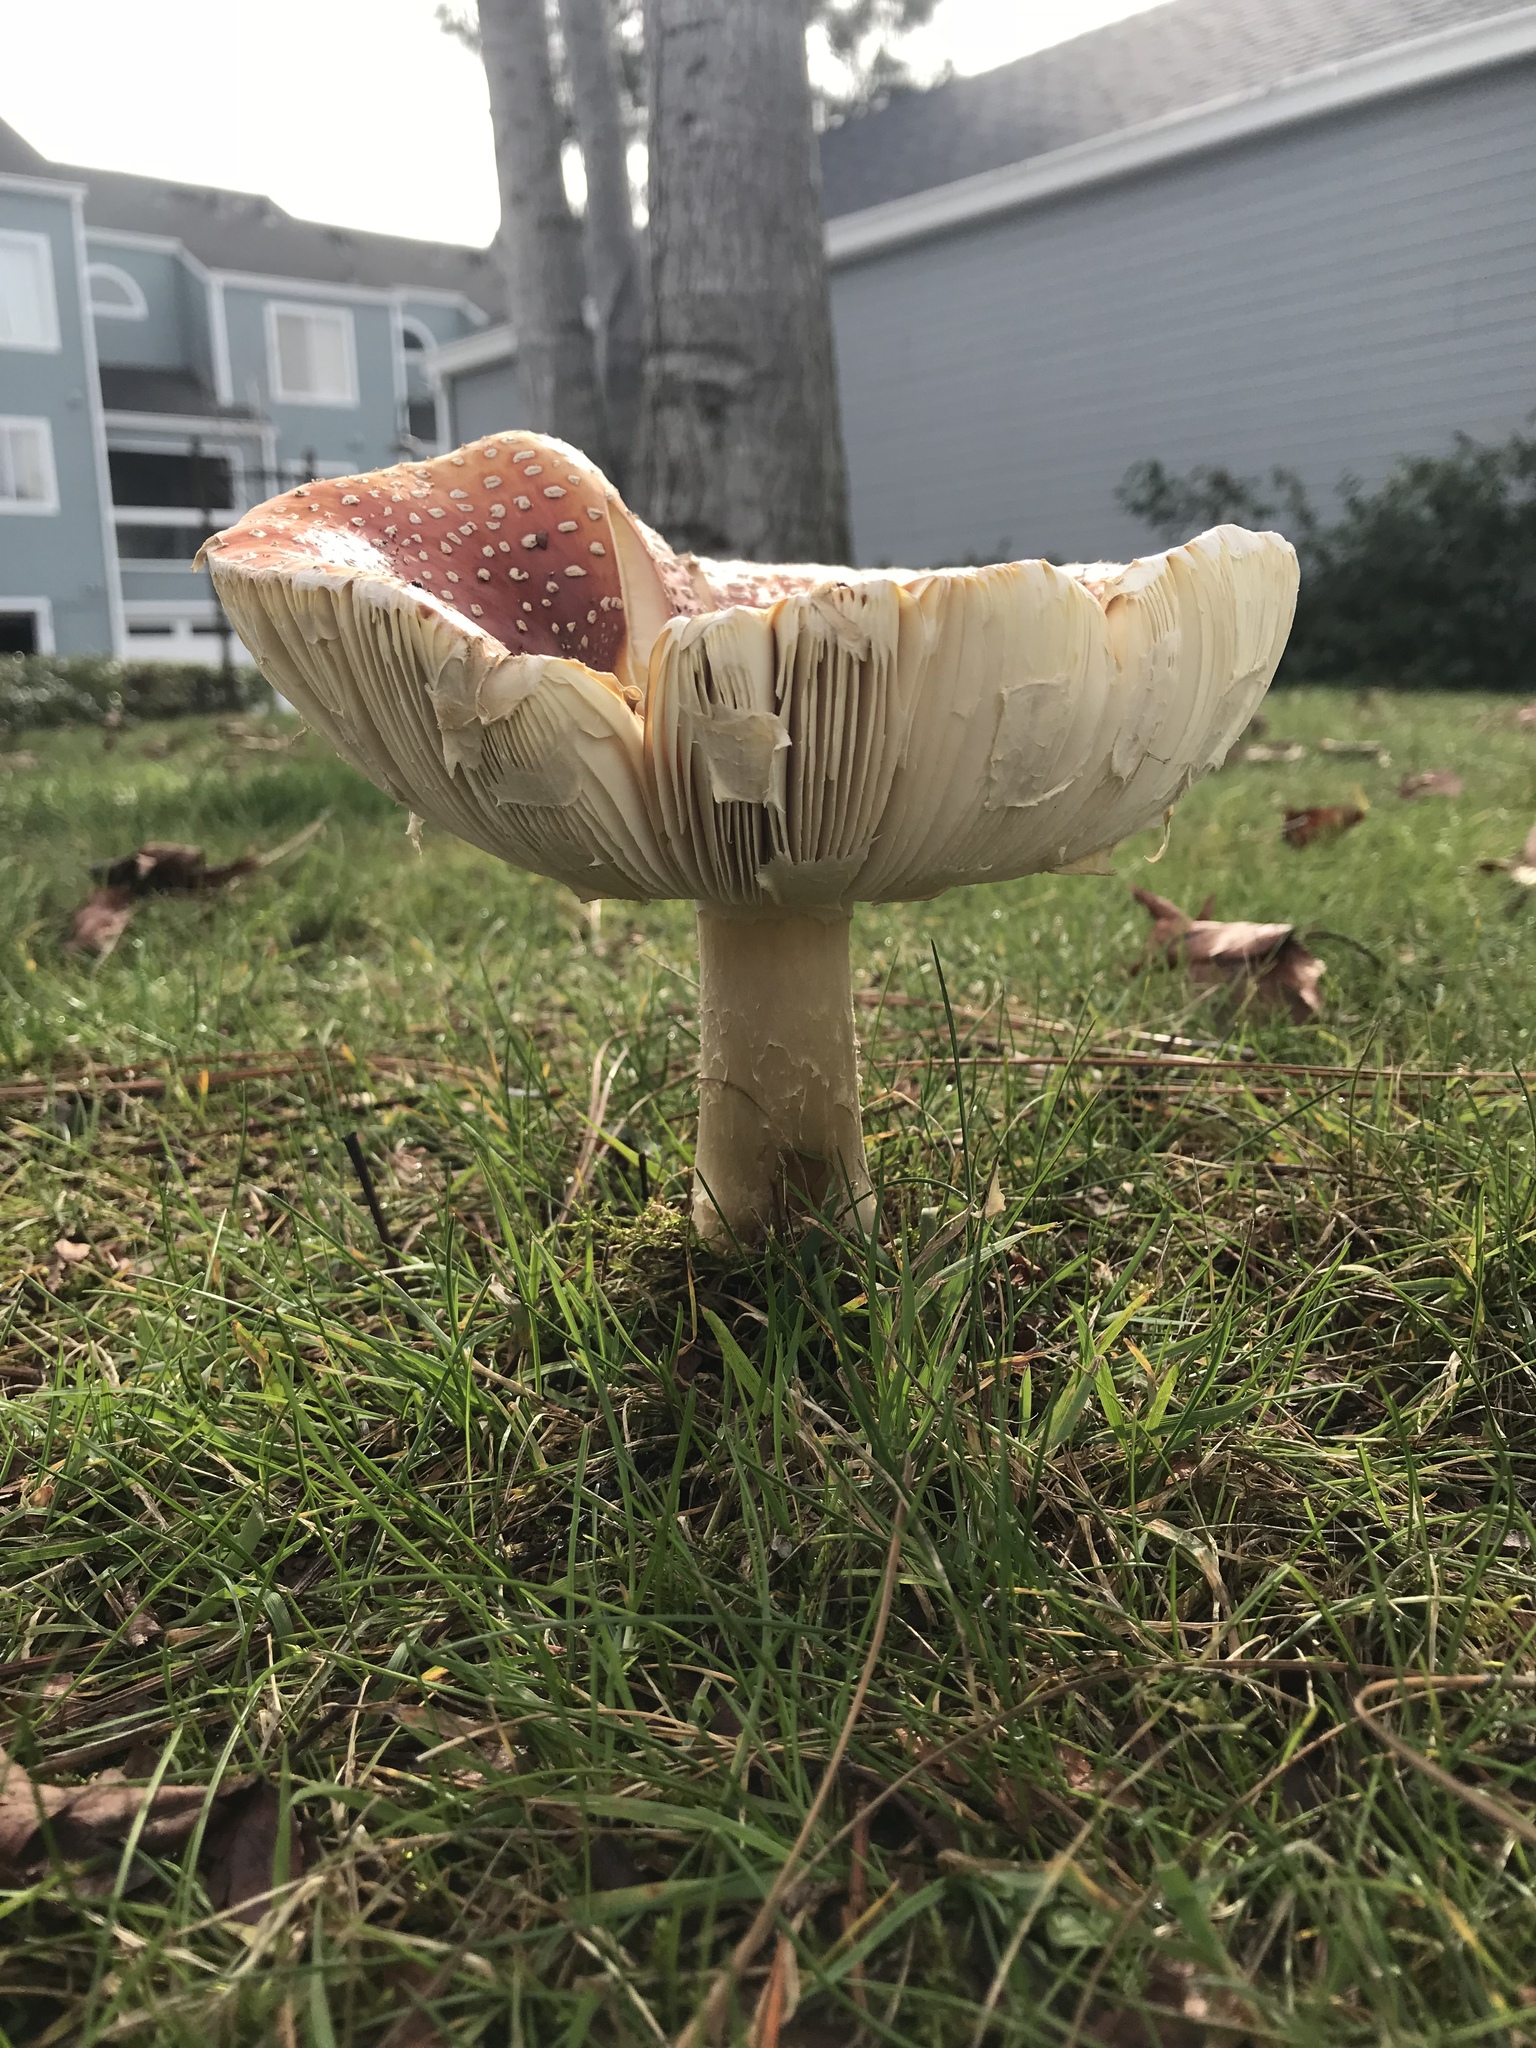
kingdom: Fungi
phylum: Basidiomycota
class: Agaricomycetes
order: Agaricales
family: Amanitaceae
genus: Amanita
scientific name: Amanita muscaria
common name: Fly agaric
